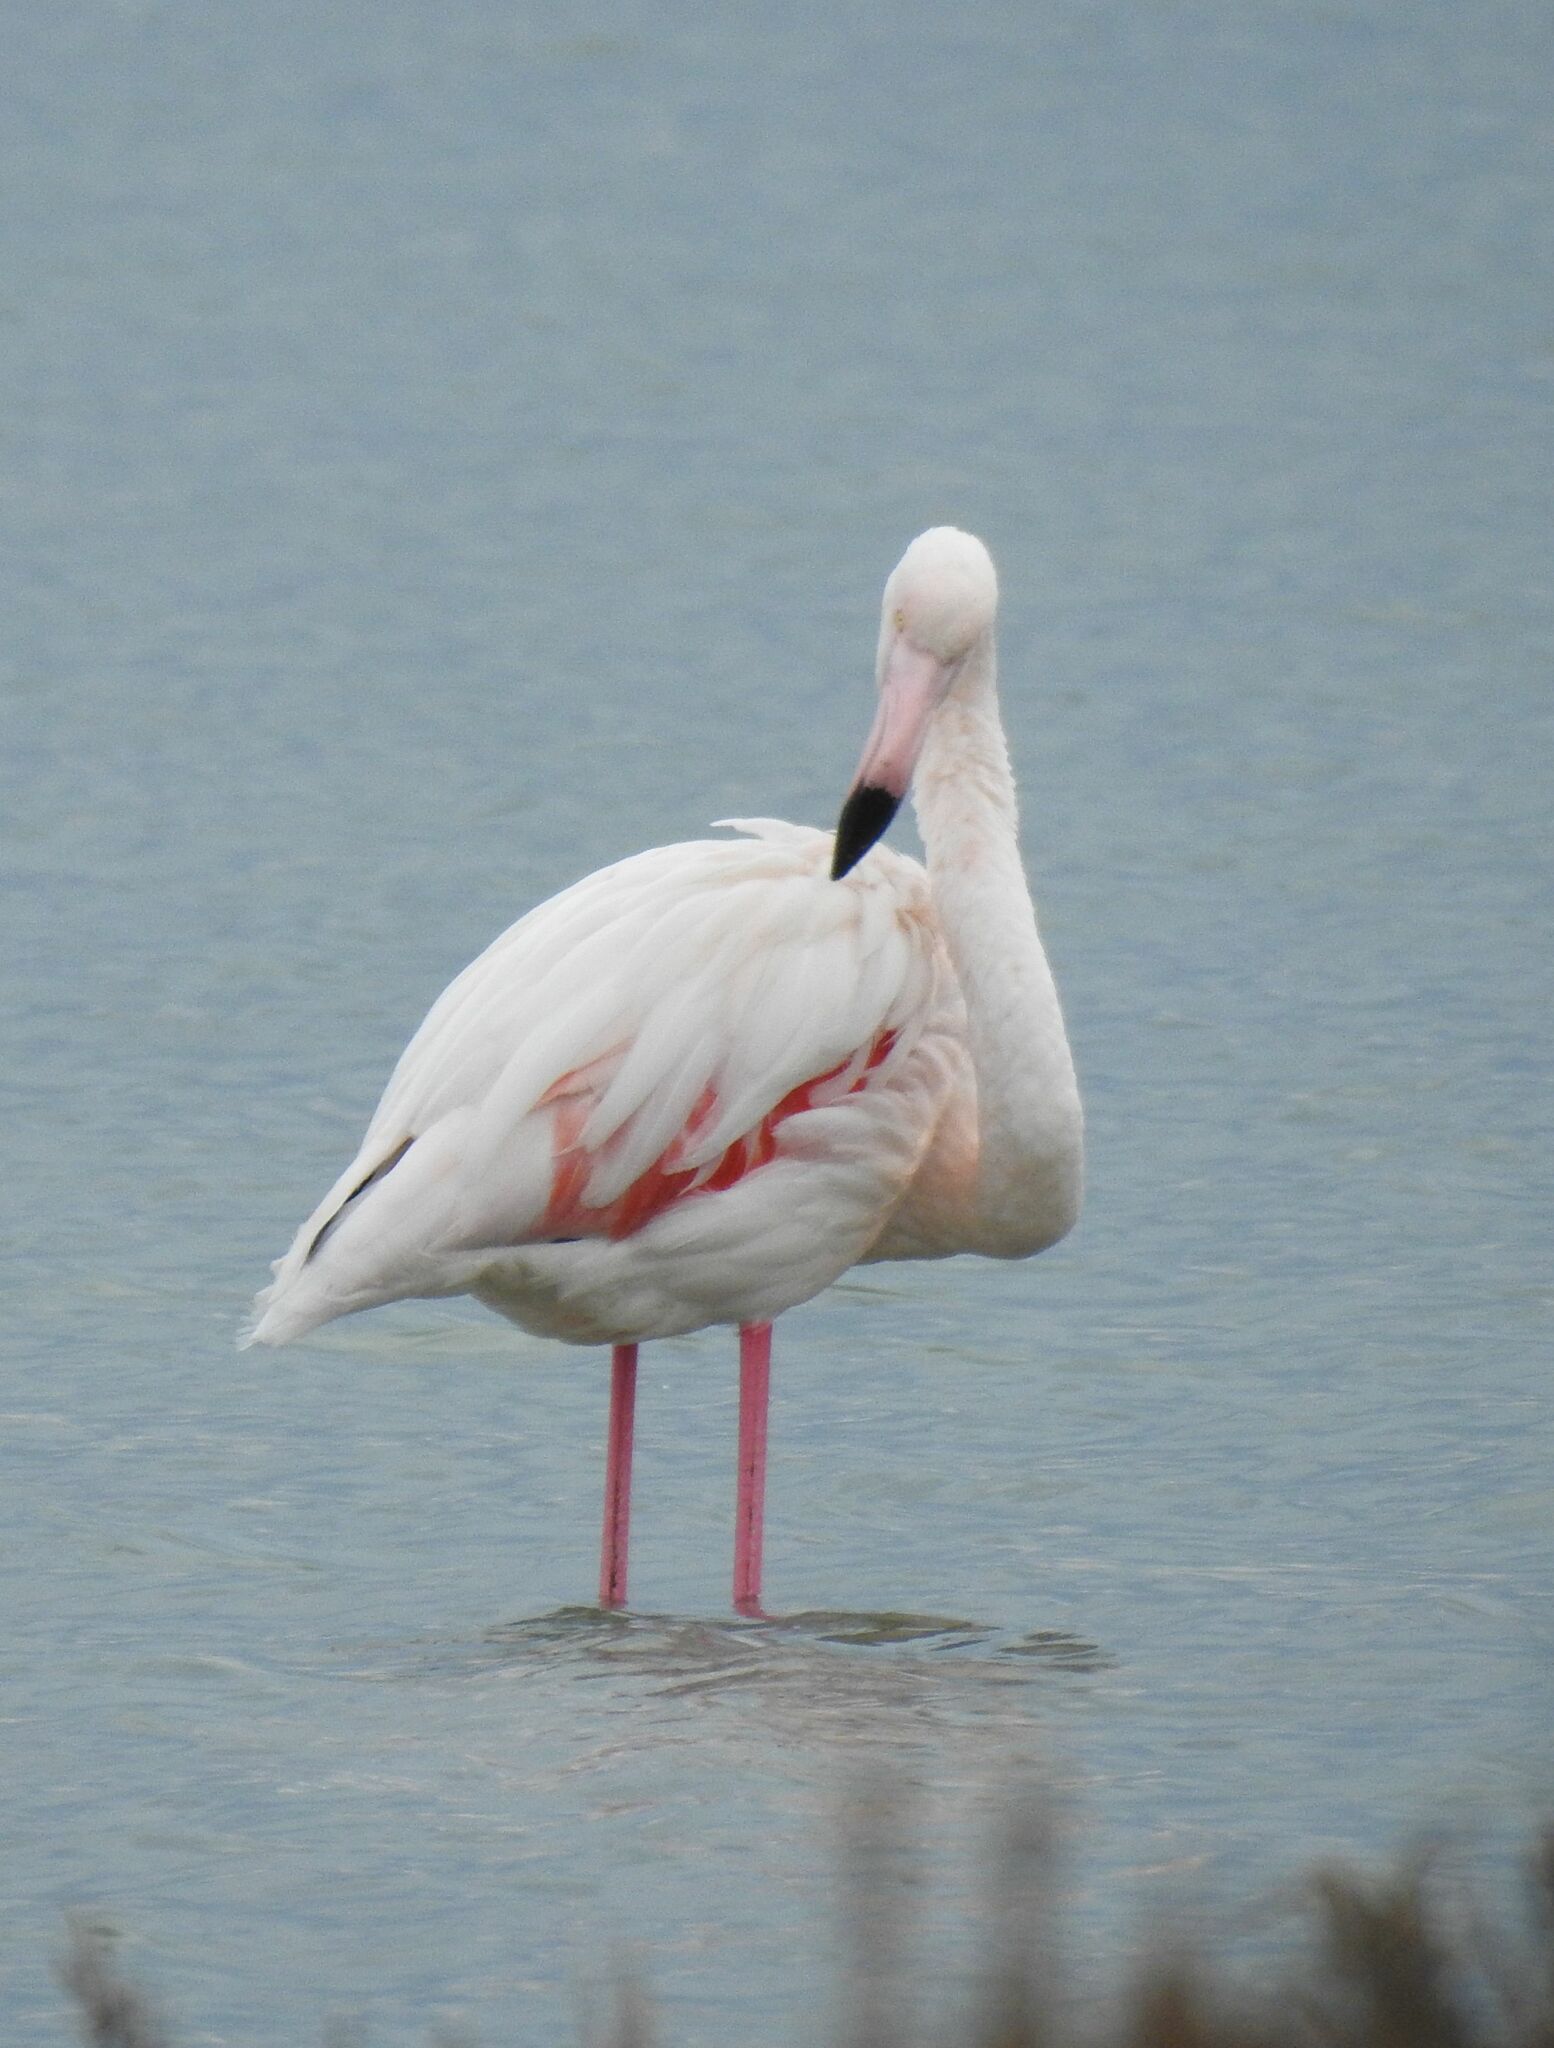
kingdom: Animalia
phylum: Chordata
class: Aves
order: Phoenicopteriformes
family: Phoenicopteridae
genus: Phoenicopterus
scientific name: Phoenicopterus roseus
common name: Greater flamingo
